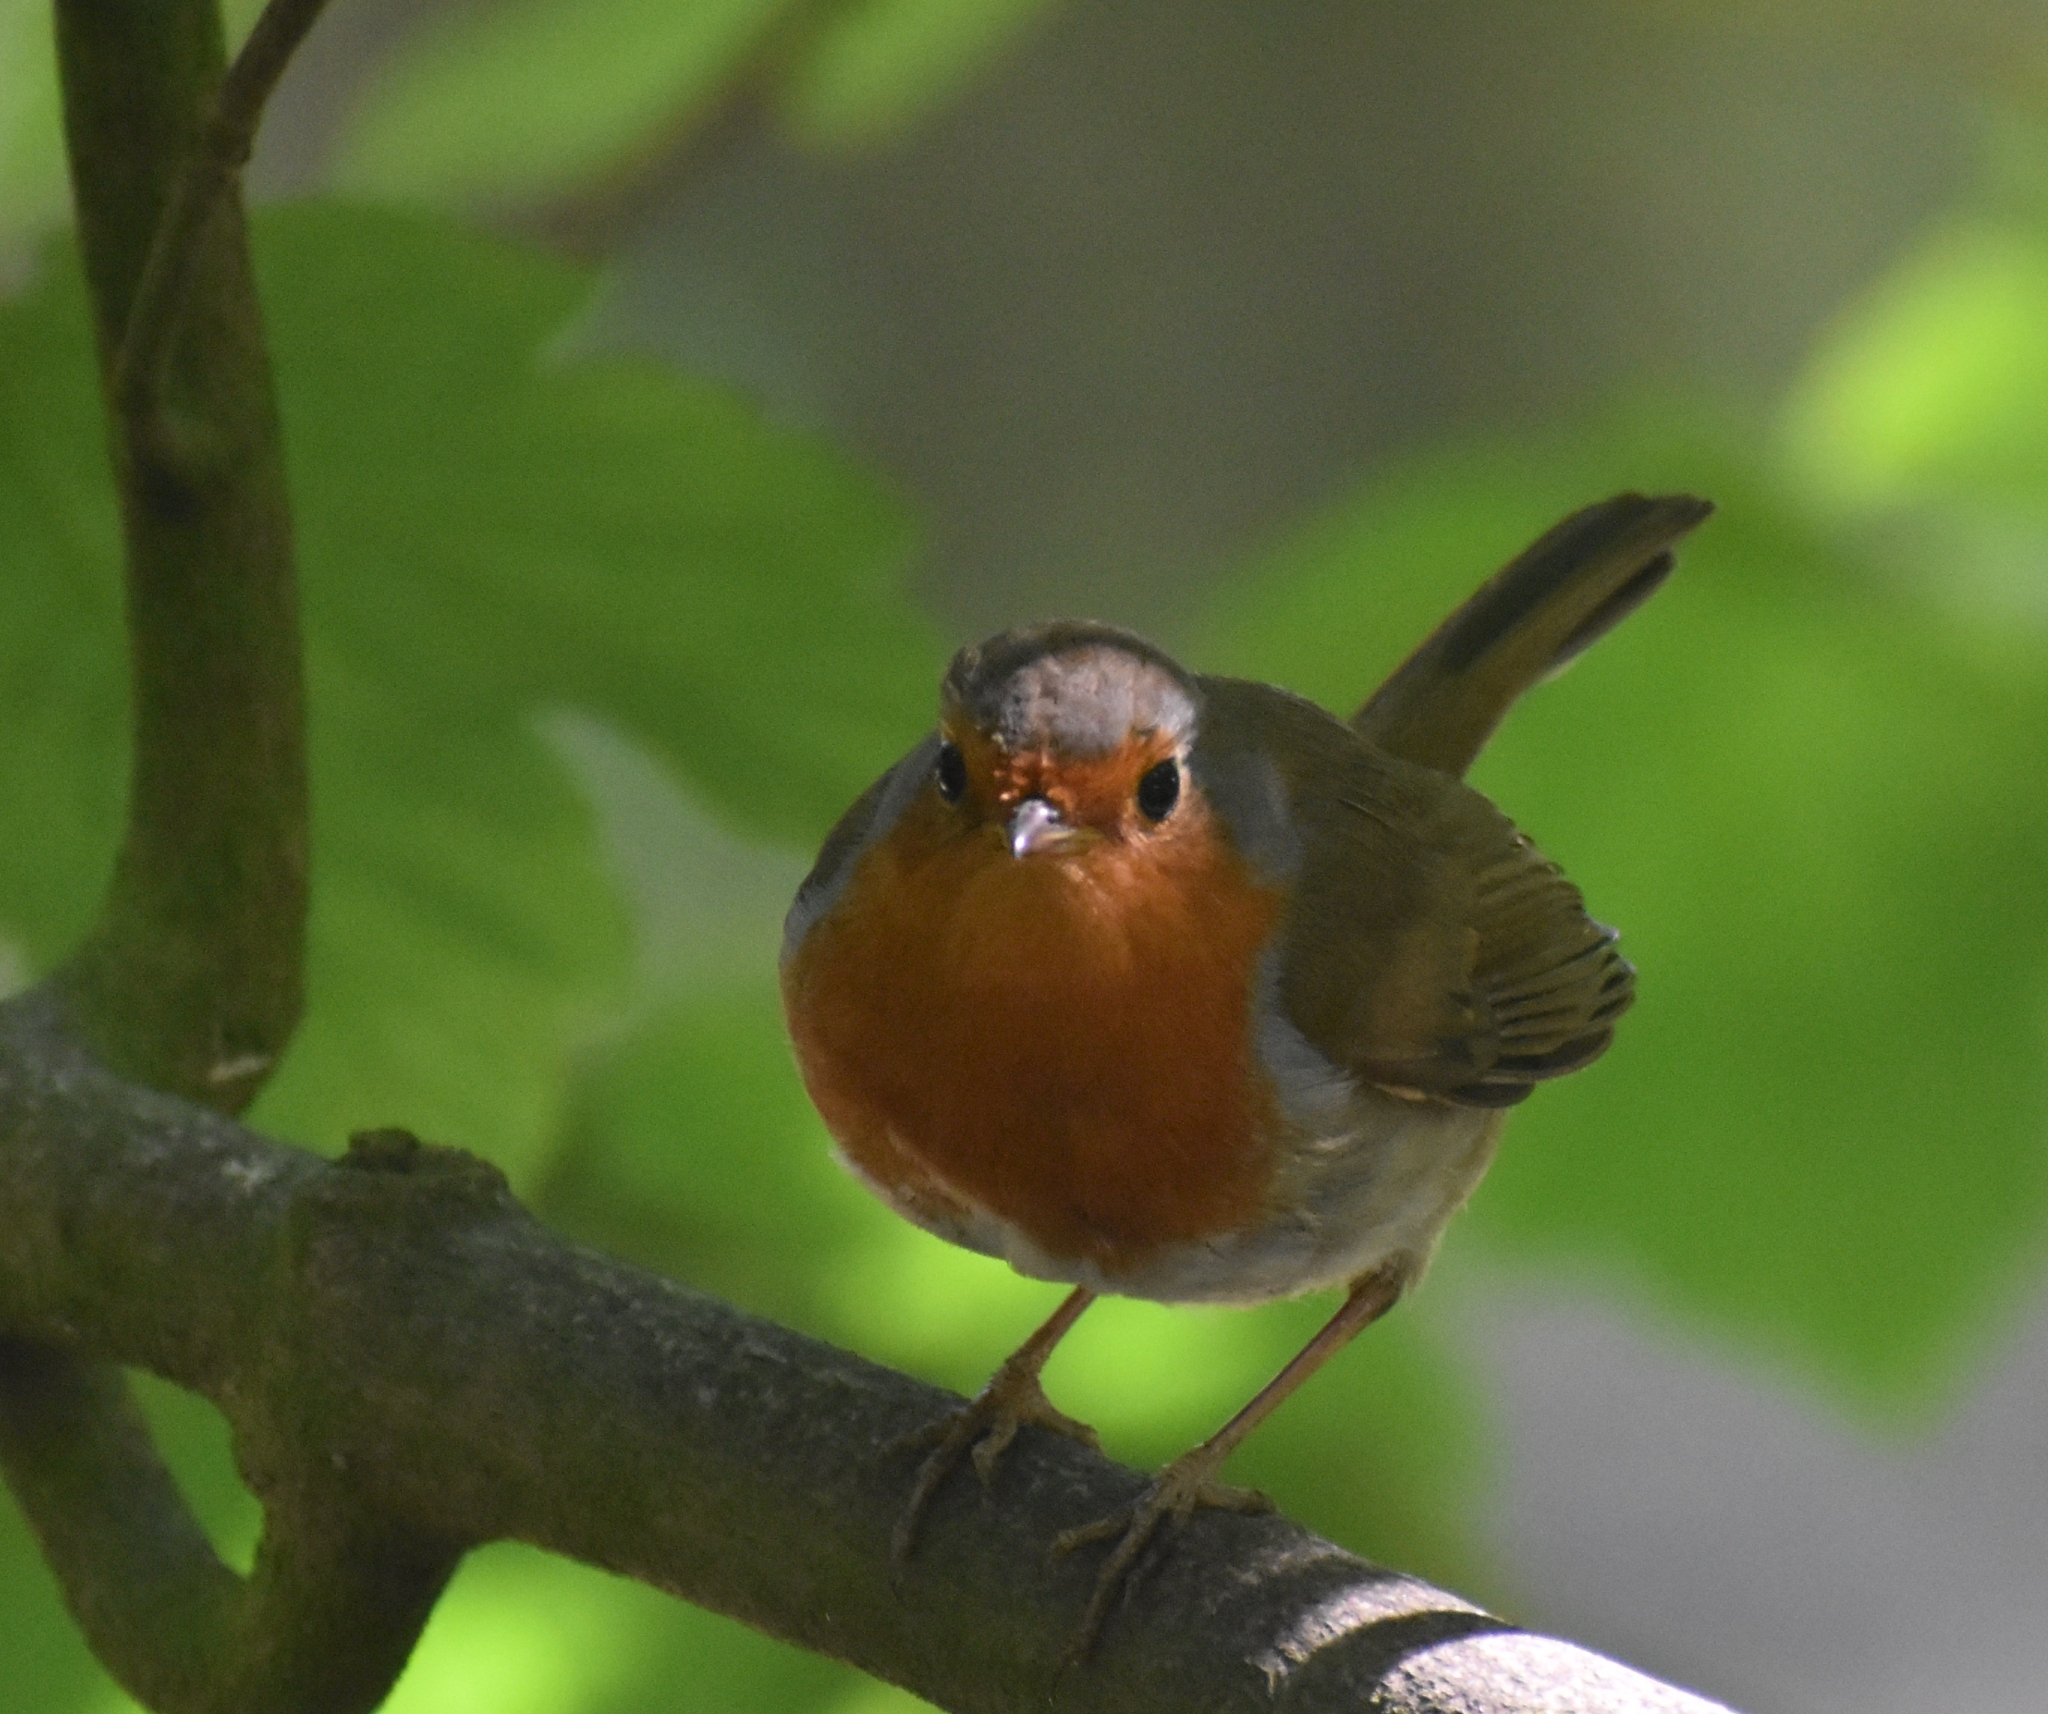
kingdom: Animalia
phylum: Chordata
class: Aves
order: Passeriformes
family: Muscicapidae
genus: Erithacus
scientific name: Erithacus rubecula
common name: European robin
